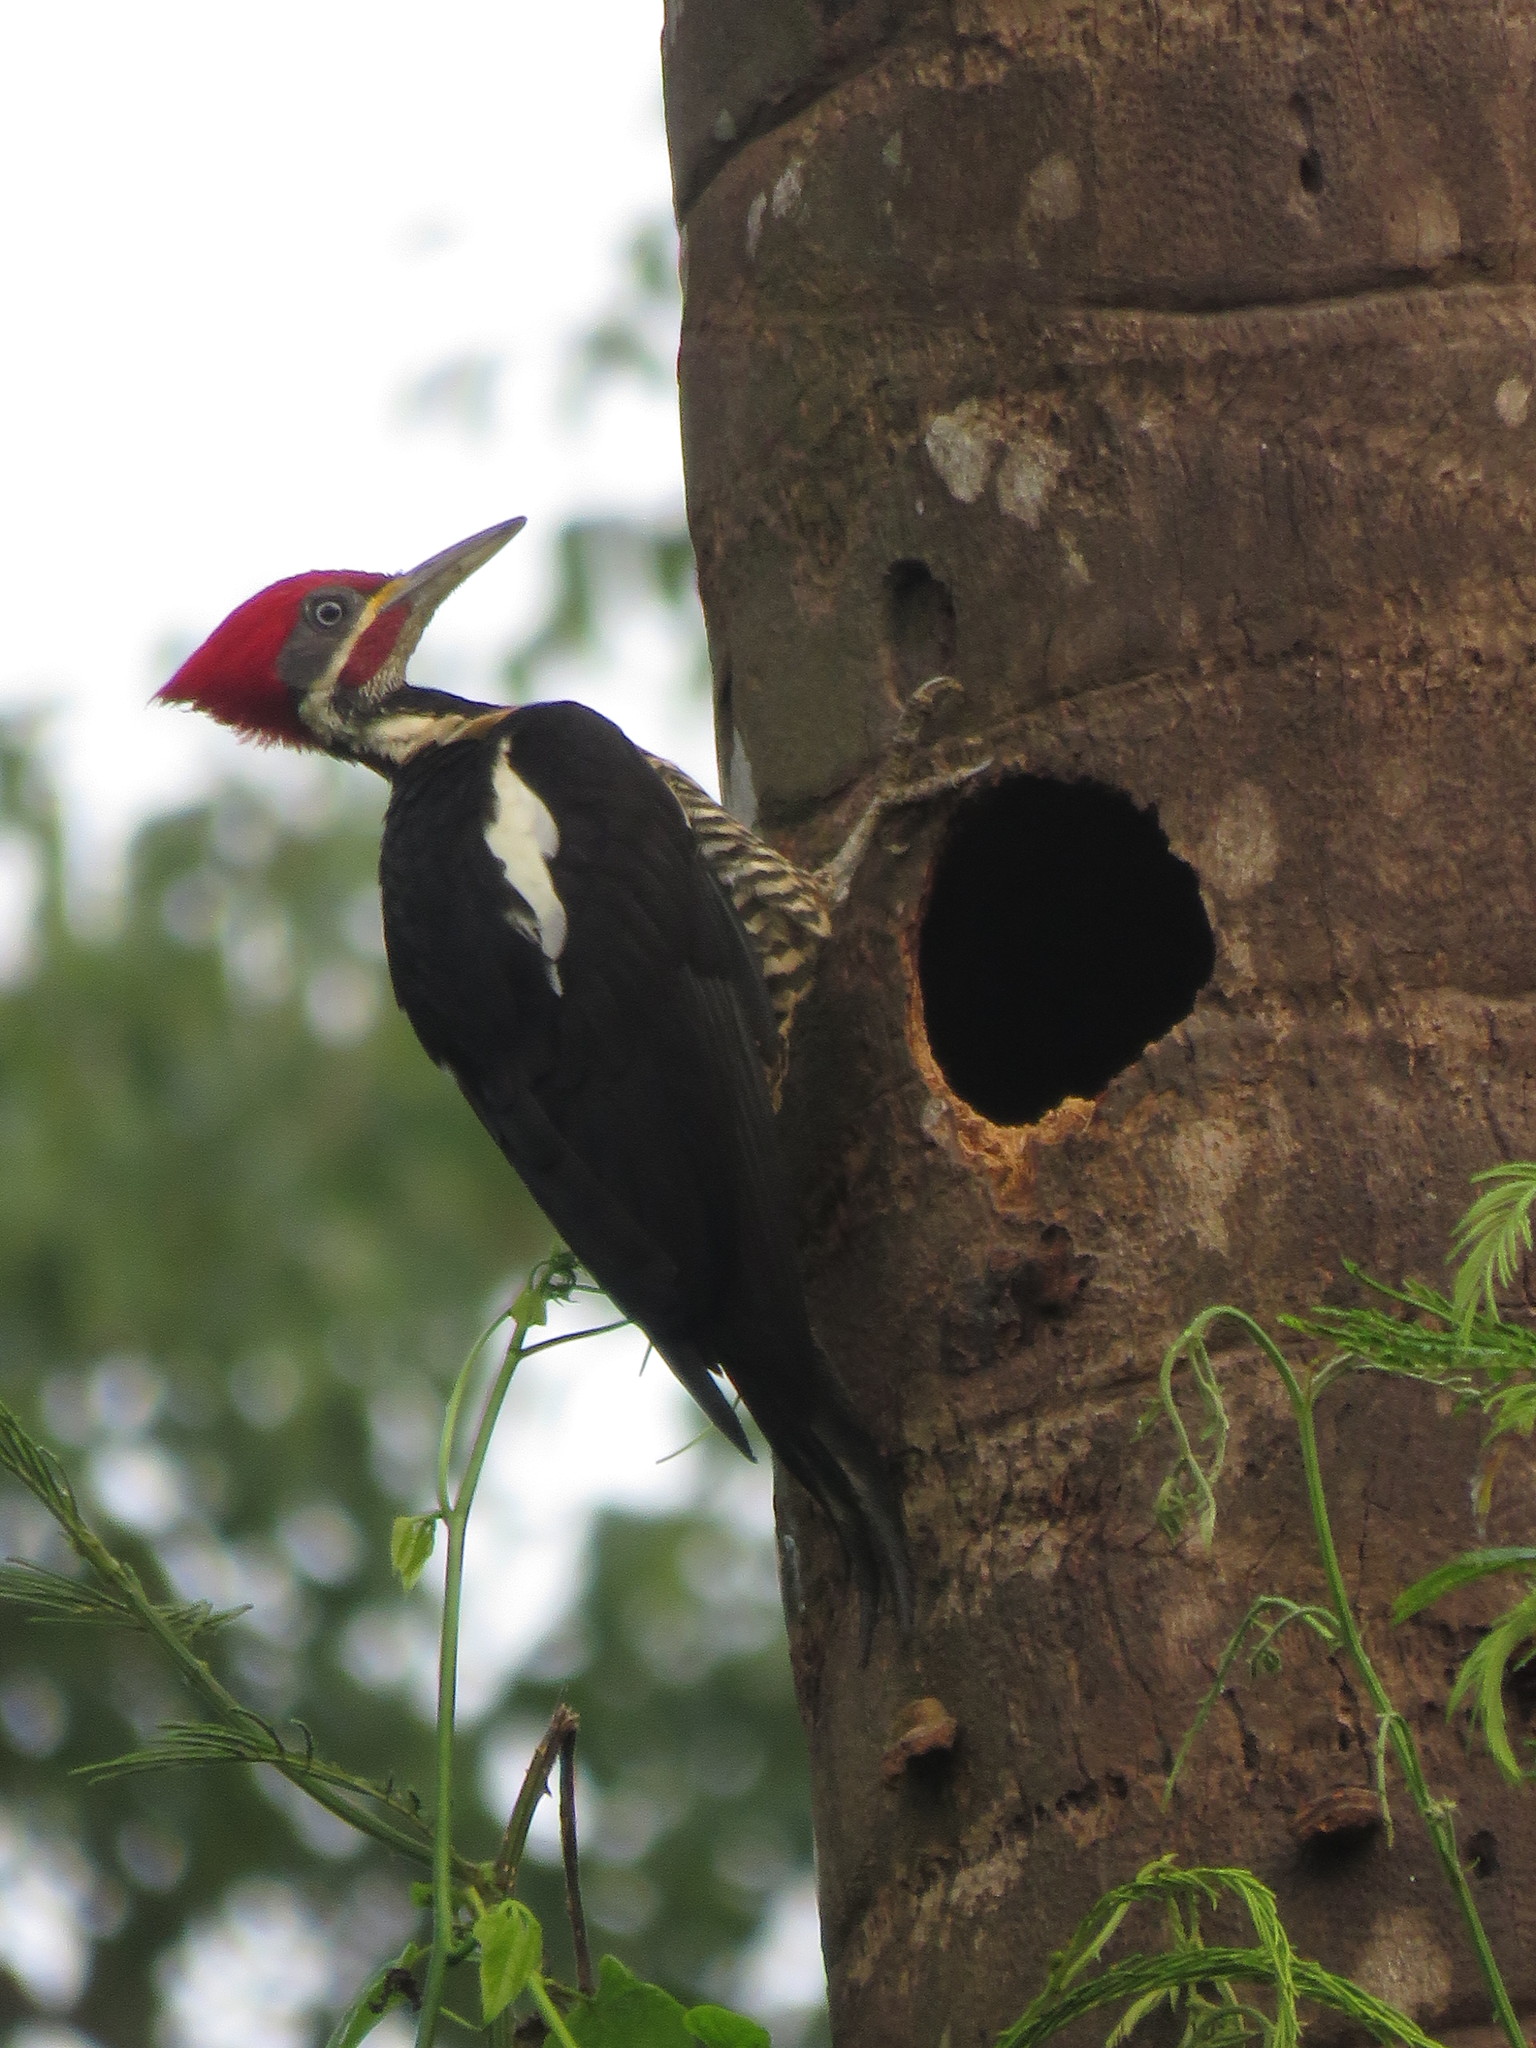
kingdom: Animalia
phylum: Chordata
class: Aves
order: Piciformes
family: Picidae
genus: Dryocopus
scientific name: Dryocopus lineatus
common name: Lineated woodpecker
